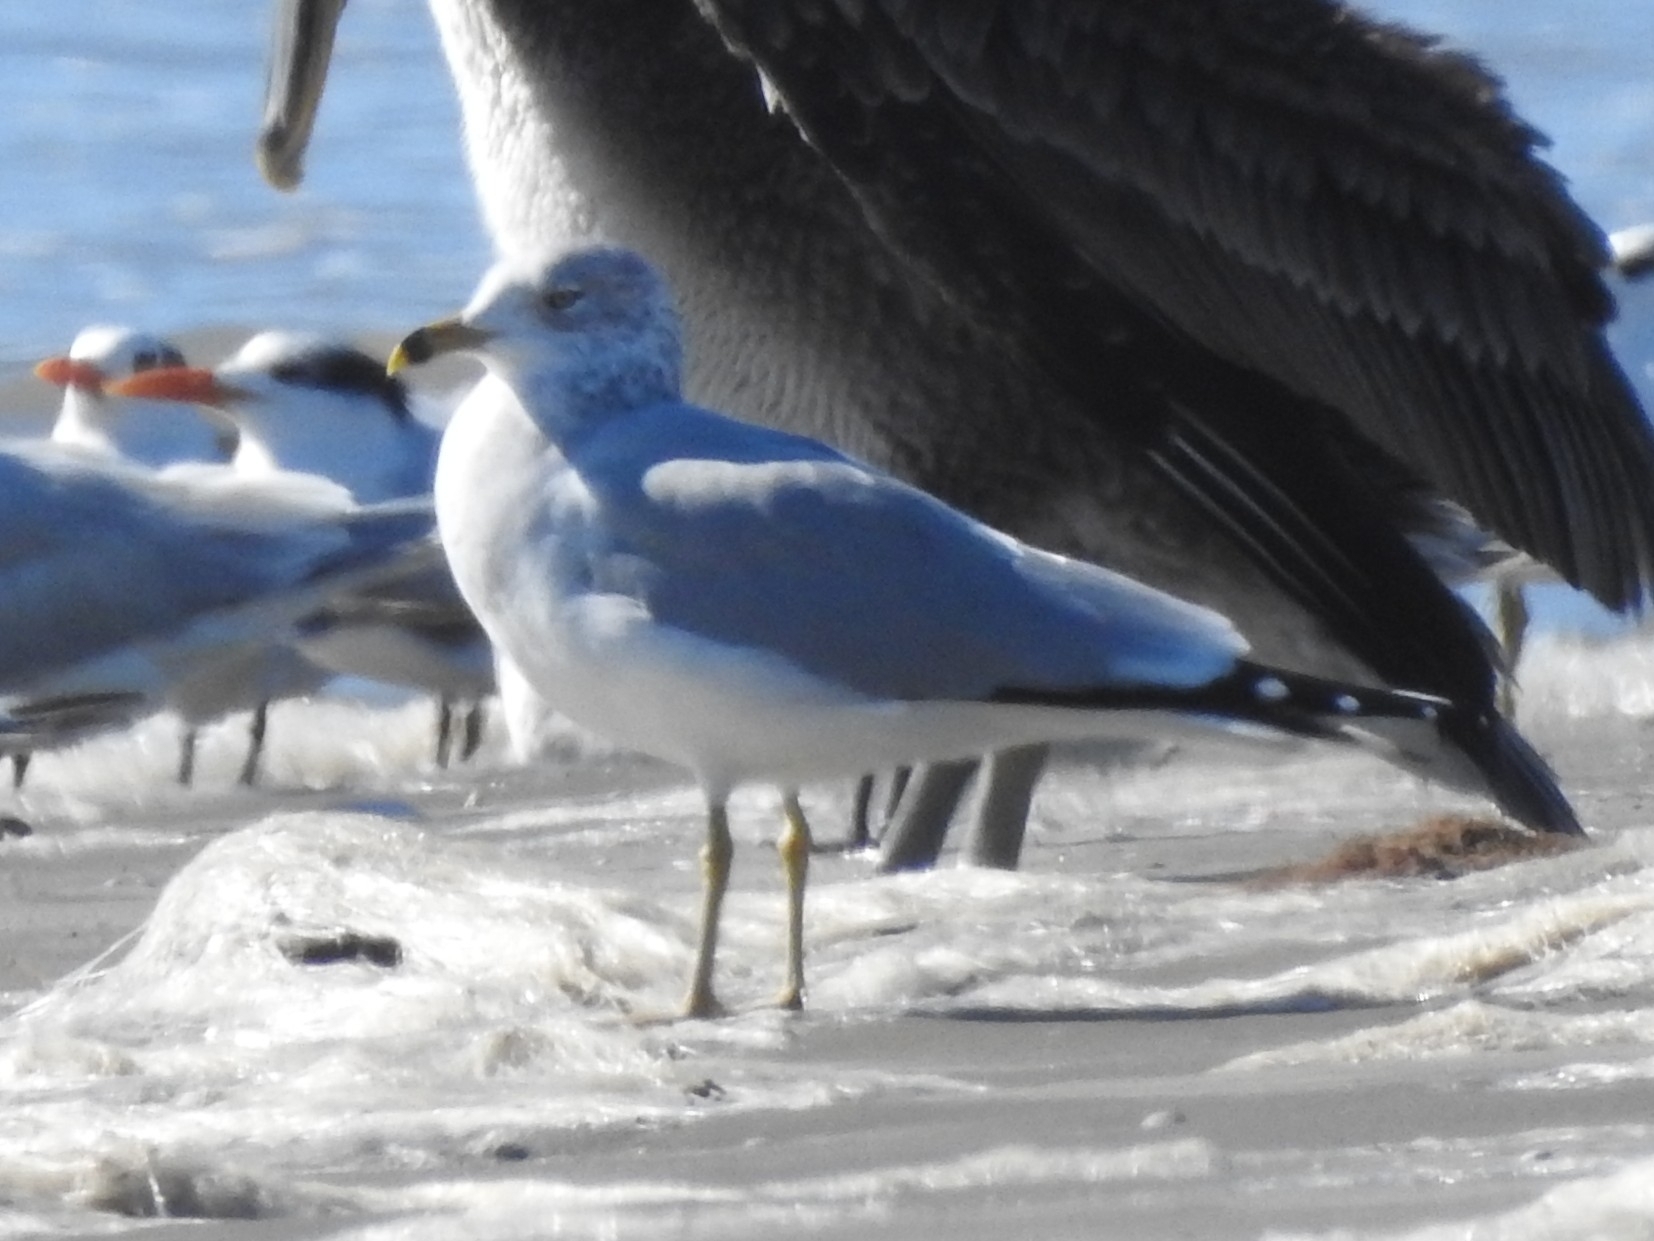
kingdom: Animalia
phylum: Chordata
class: Aves
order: Charadriiformes
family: Laridae
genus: Larus
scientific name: Larus delawarensis
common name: Ring-billed gull
